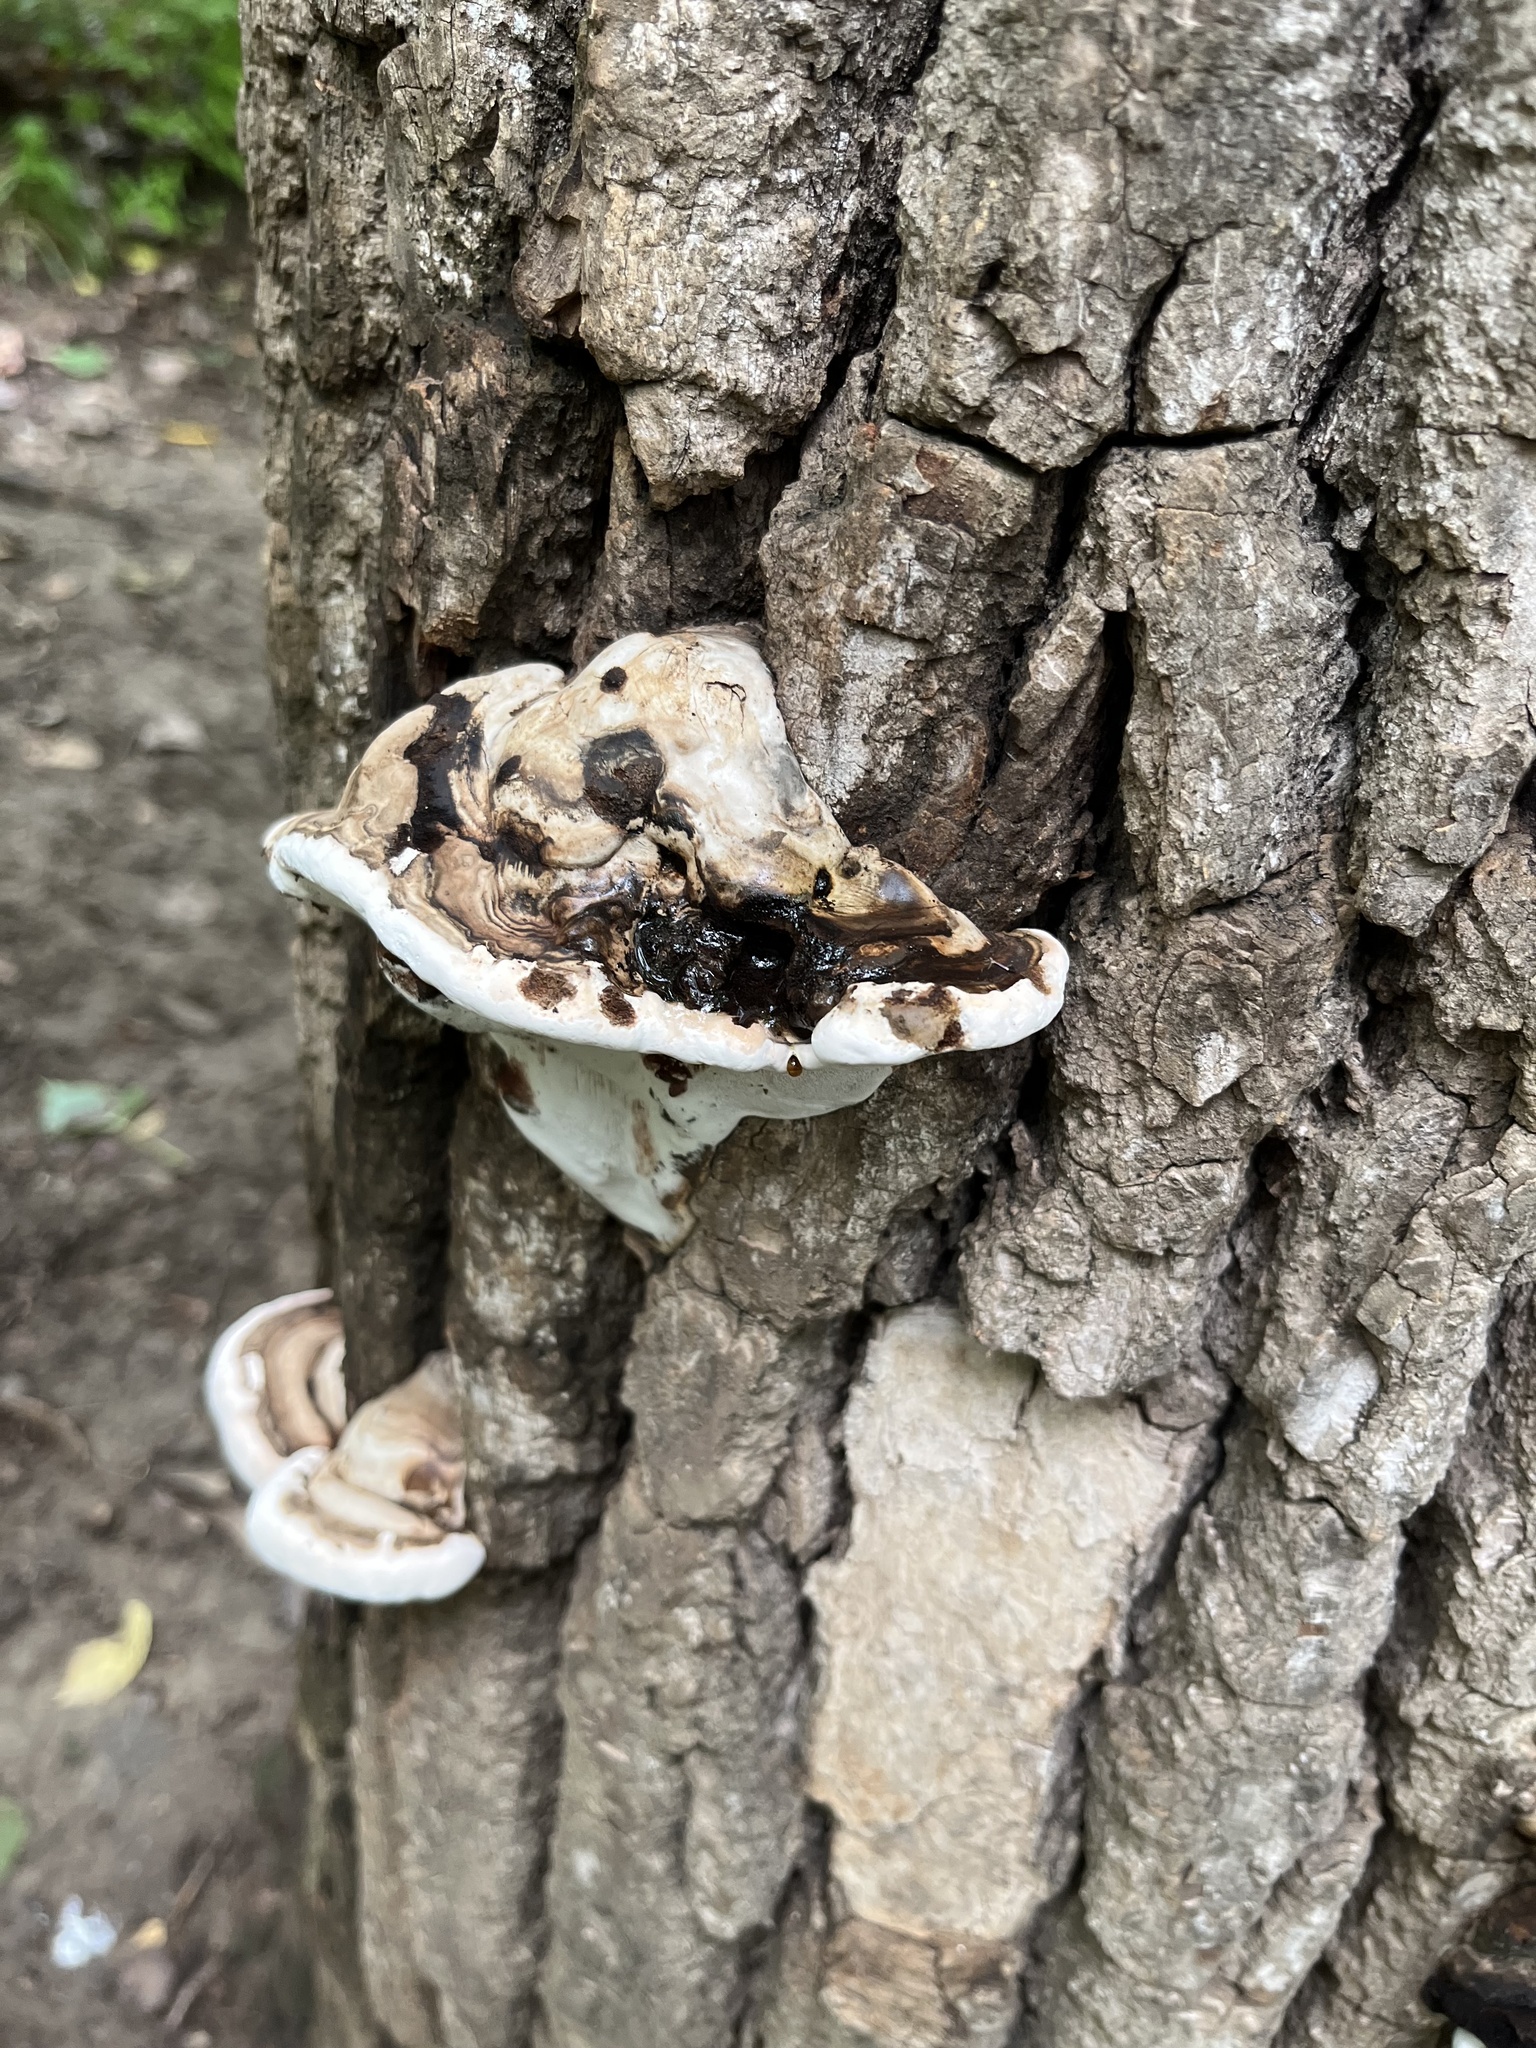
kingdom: Fungi
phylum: Basidiomycota
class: Agaricomycetes
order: Polyporales
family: Polyporaceae
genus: Ganoderma
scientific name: Ganoderma applanatum
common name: Artist's bracket
